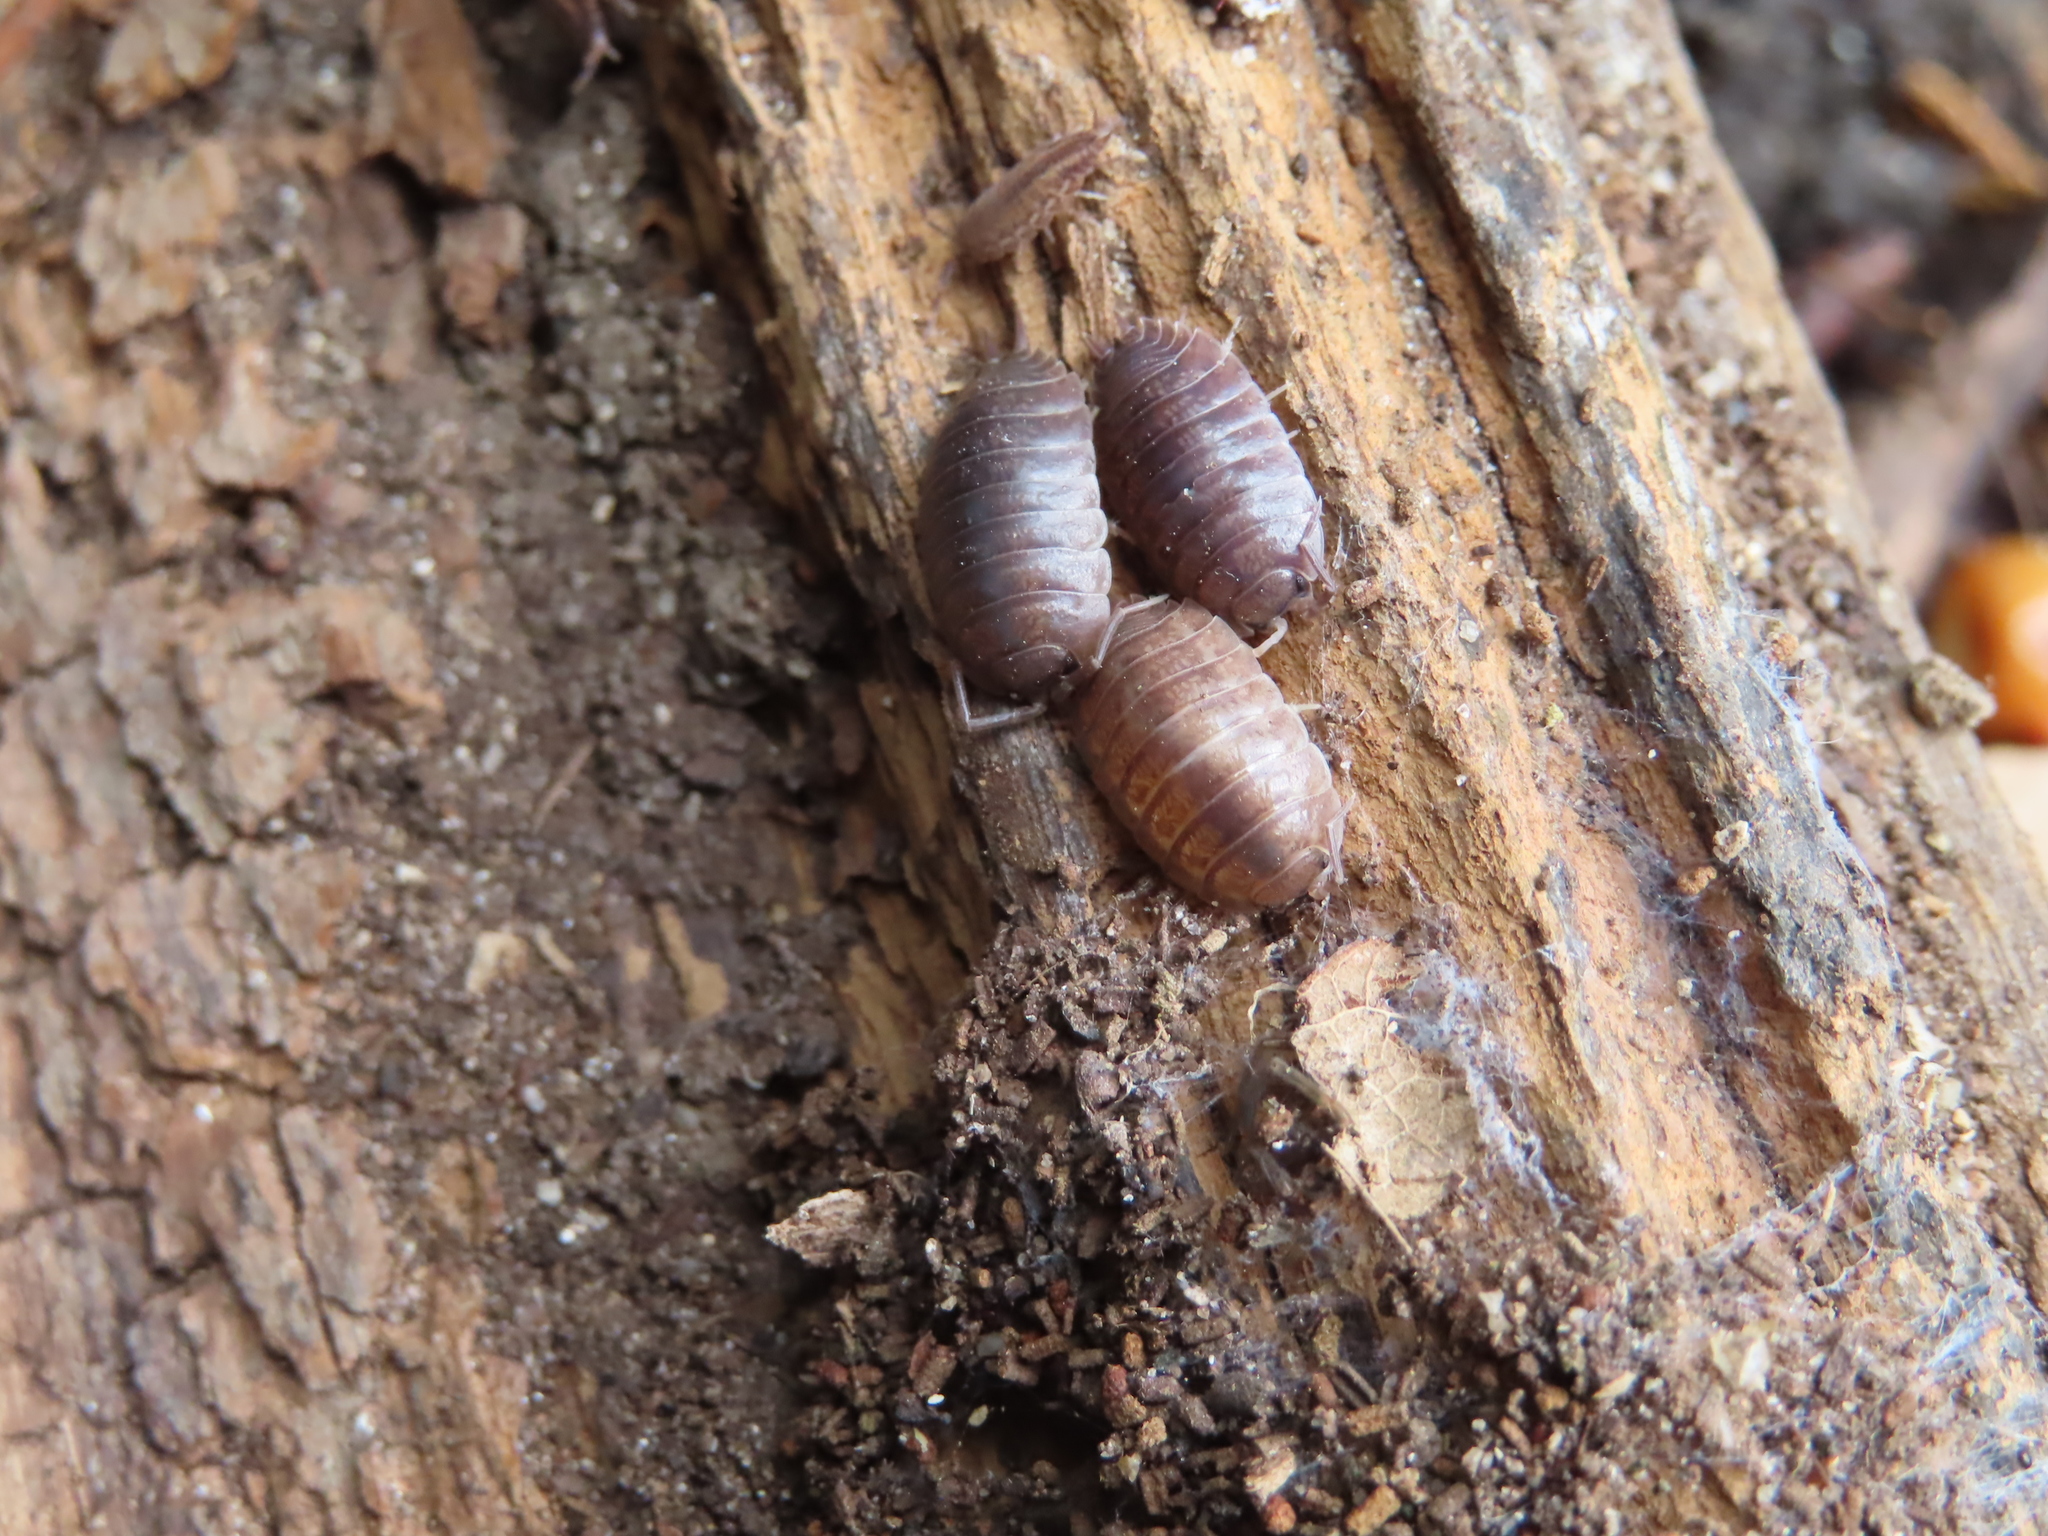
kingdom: Animalia
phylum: Arthropoda
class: Malacostraca
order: Isopoda
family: Porcellionidae
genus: Porcellio
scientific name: Porcellio laevis
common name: Swift woodlouse
